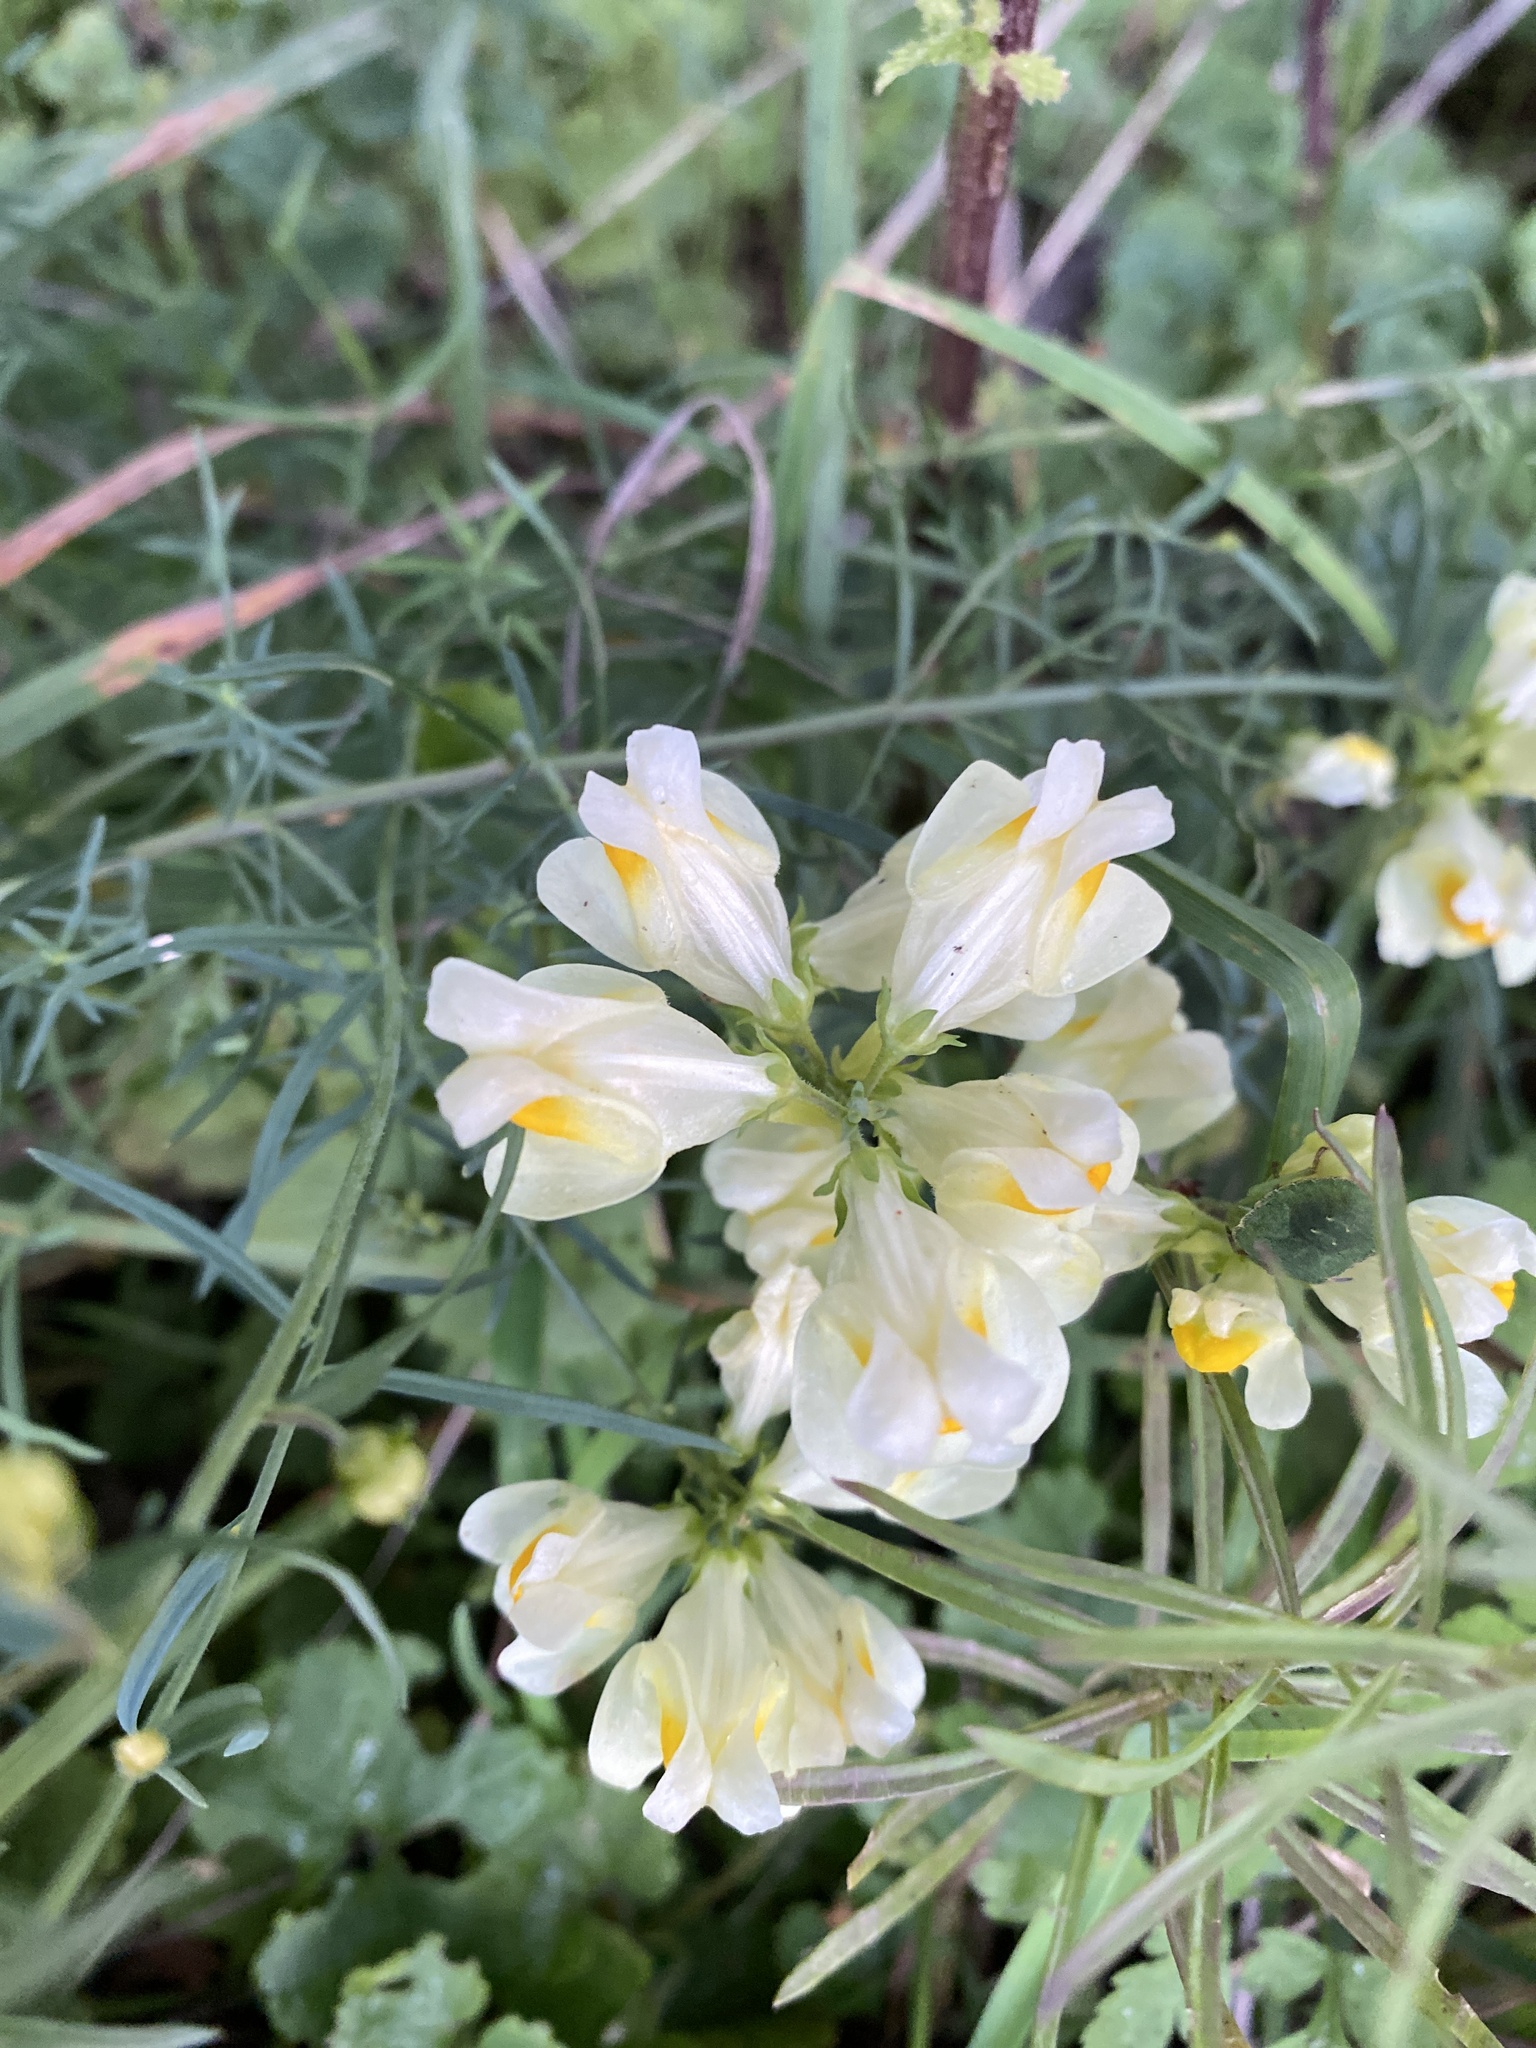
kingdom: Plantae
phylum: Tracheophyta
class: Magnoliopsida
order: Lamiales
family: Plantaginaceae
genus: Linaria
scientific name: Linaria vulgaris
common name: Butter and eggs
